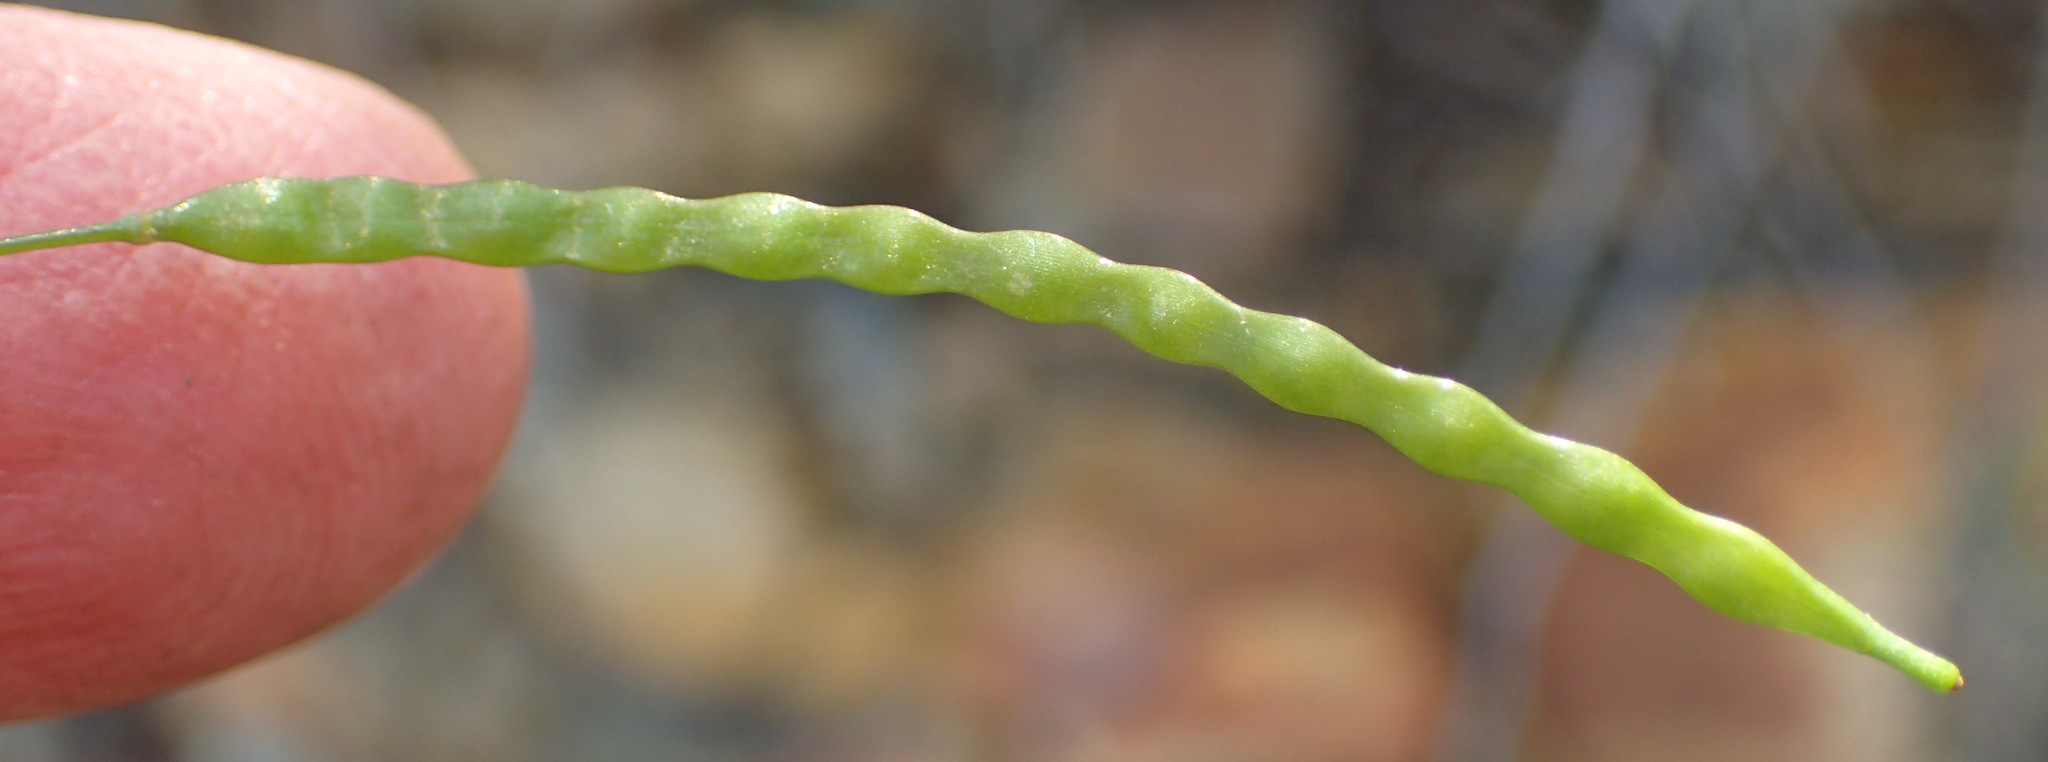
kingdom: Plantae
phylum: Tracheophyta
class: Magnoliopsida
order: Brassicales
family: Brassicaceae
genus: Heliophila
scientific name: Heliophila pendula
